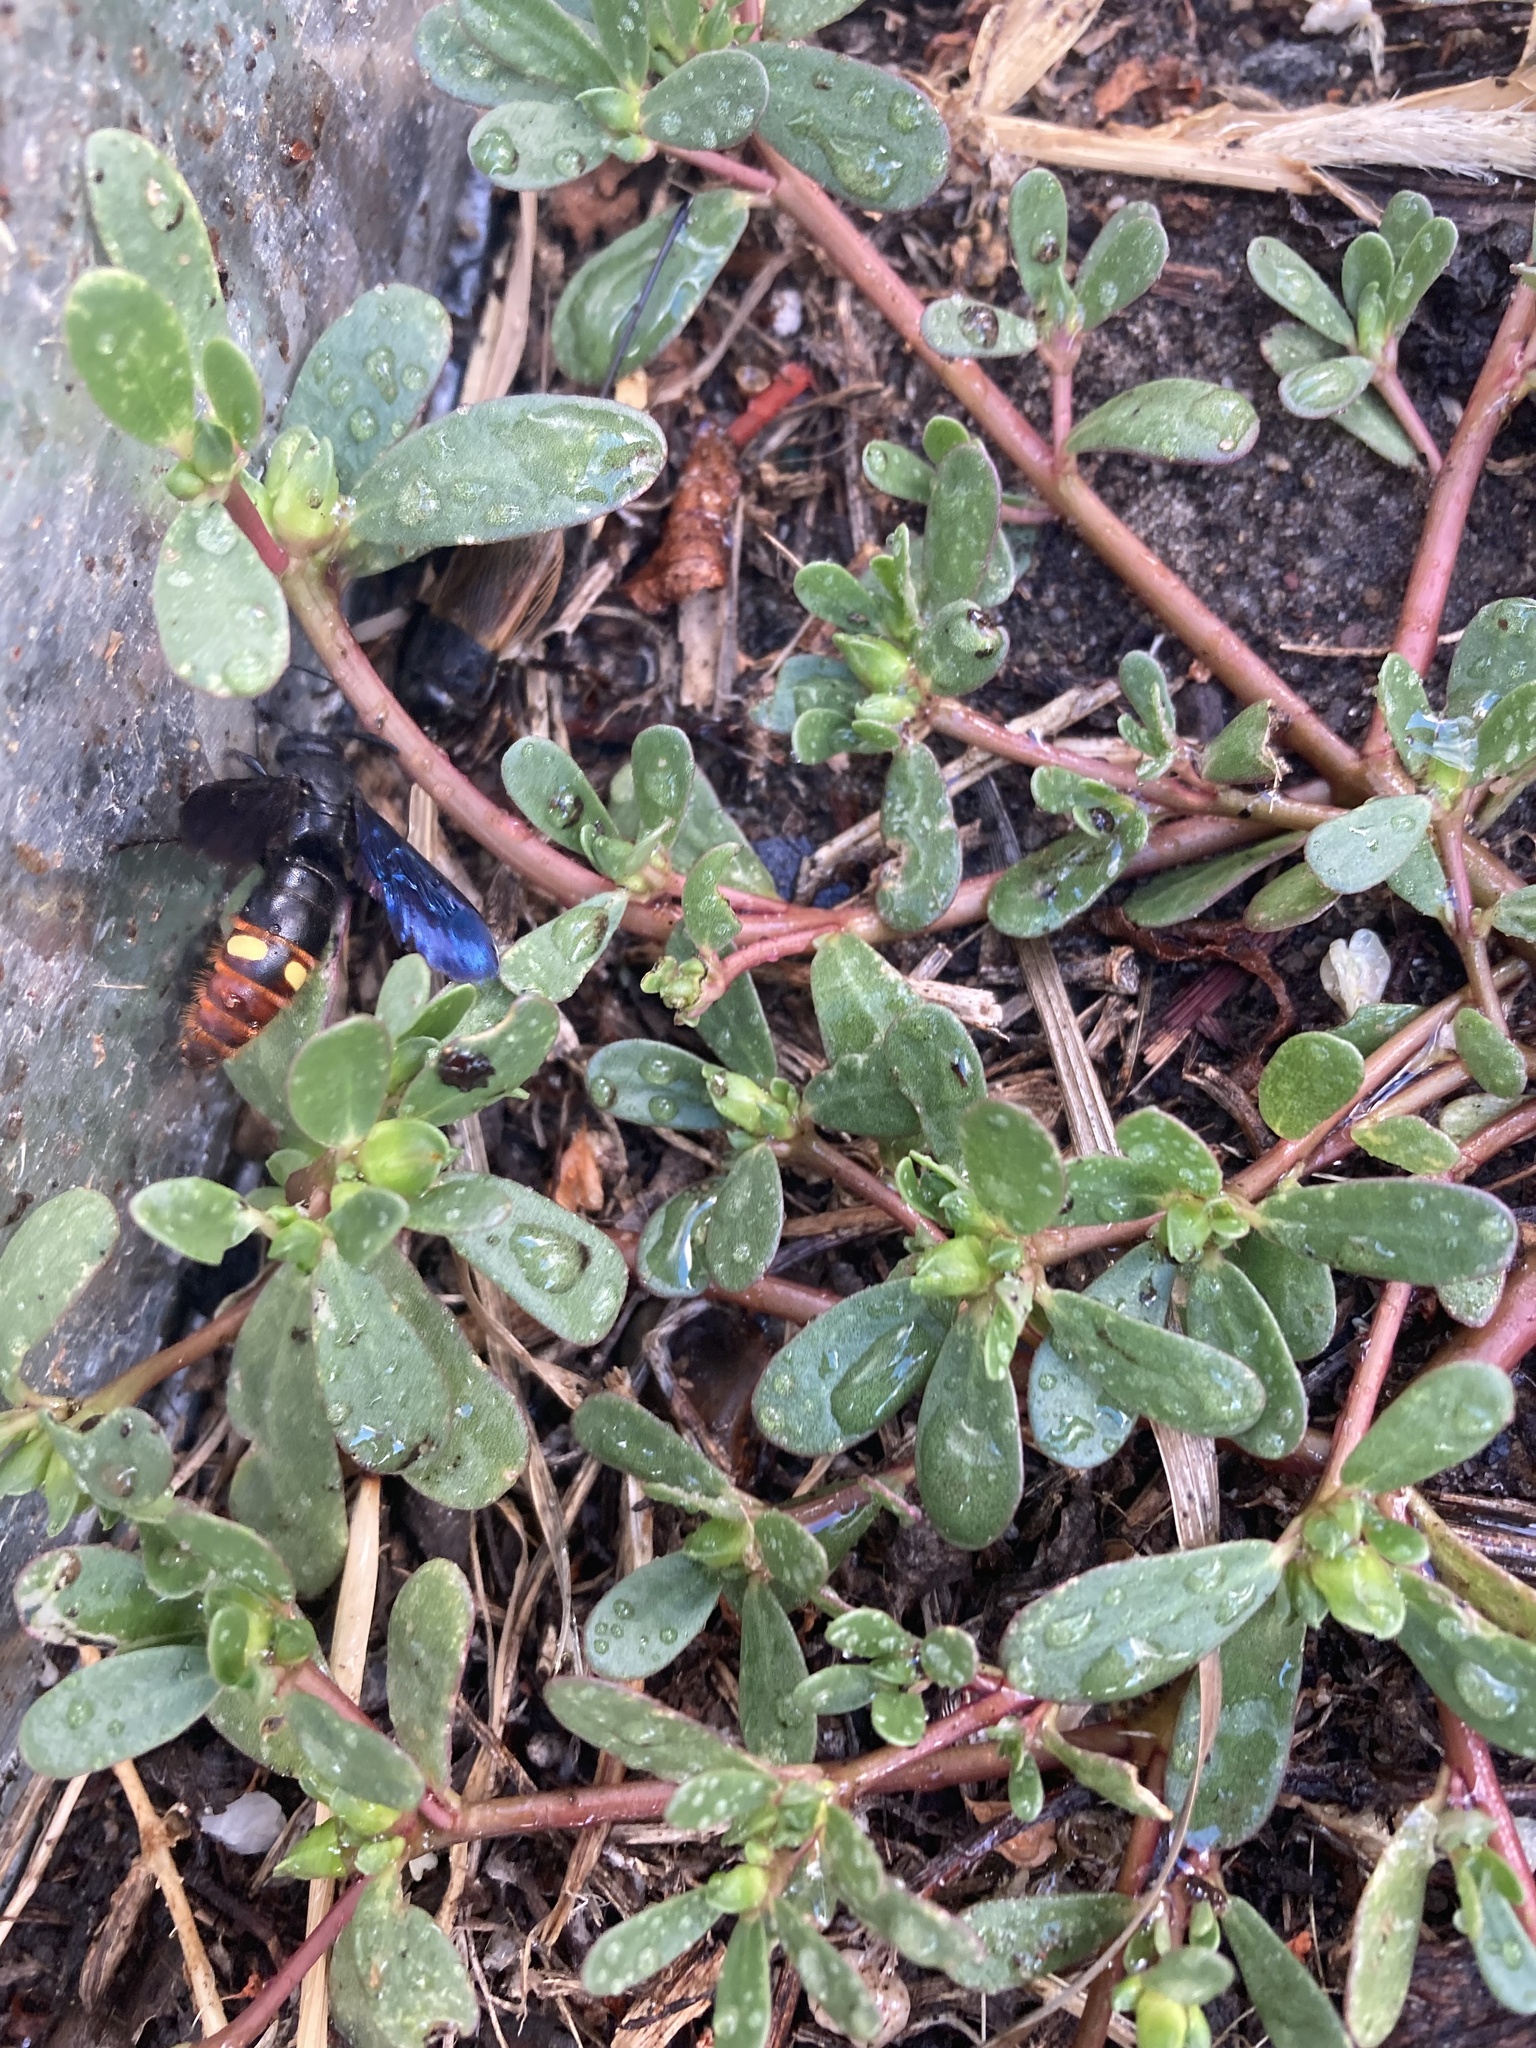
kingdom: Animalia
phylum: Arthropoda
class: Insecta
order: Hymenoptera
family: Scoliidae
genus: Scolia
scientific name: Scolia dubia
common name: Blue-winged scoliid wasp
